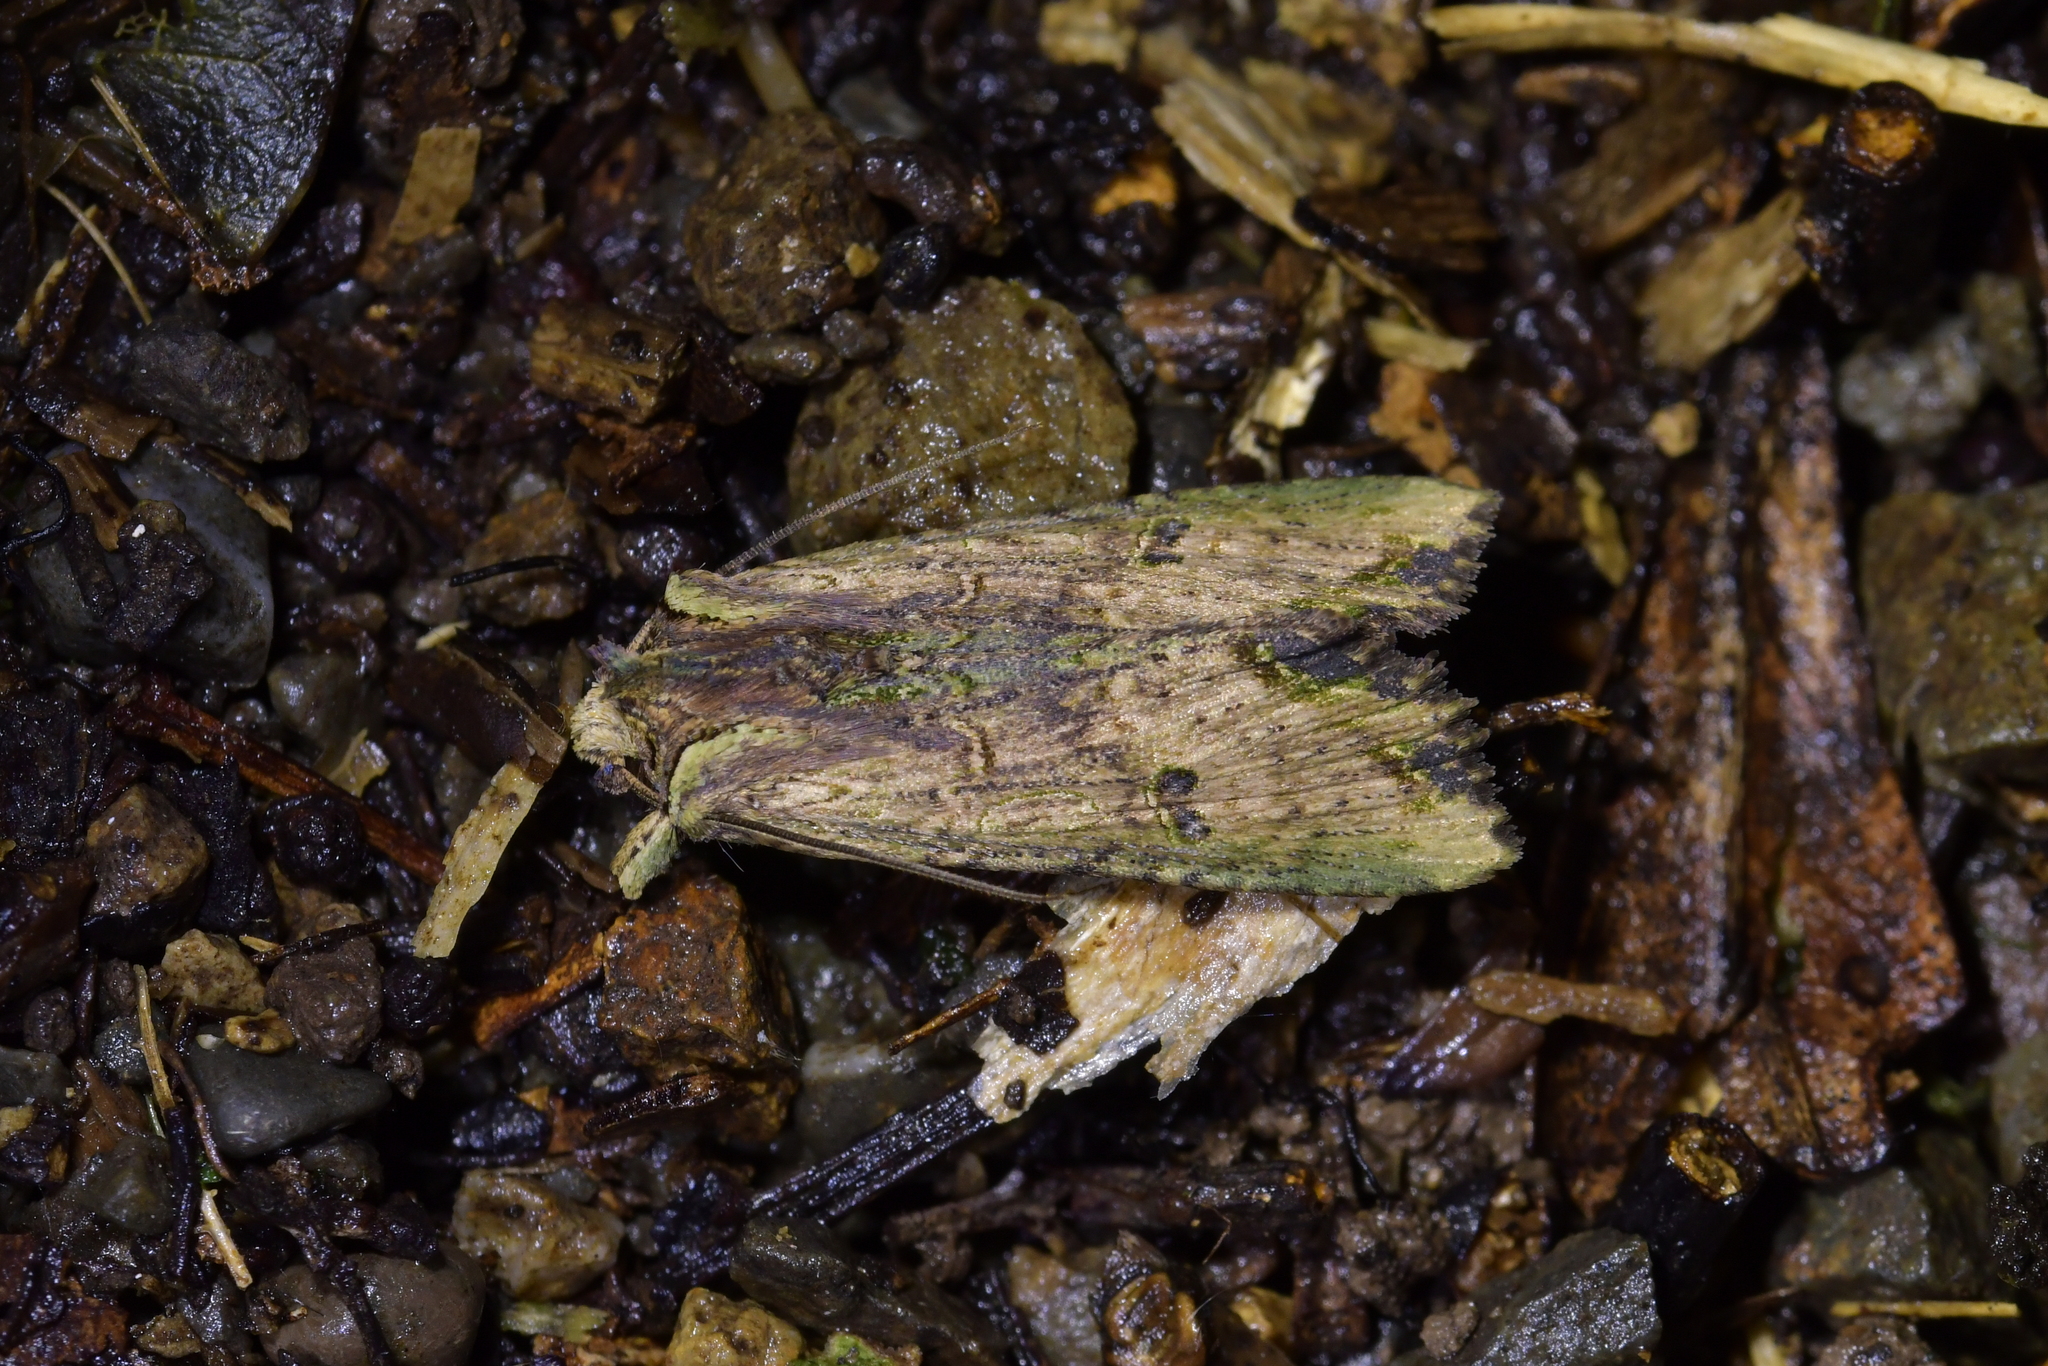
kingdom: Animalia
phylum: Arthropoda
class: Insecta
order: Lepidoptera
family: Noctuidae
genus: Meterana
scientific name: Meterana coeleno
